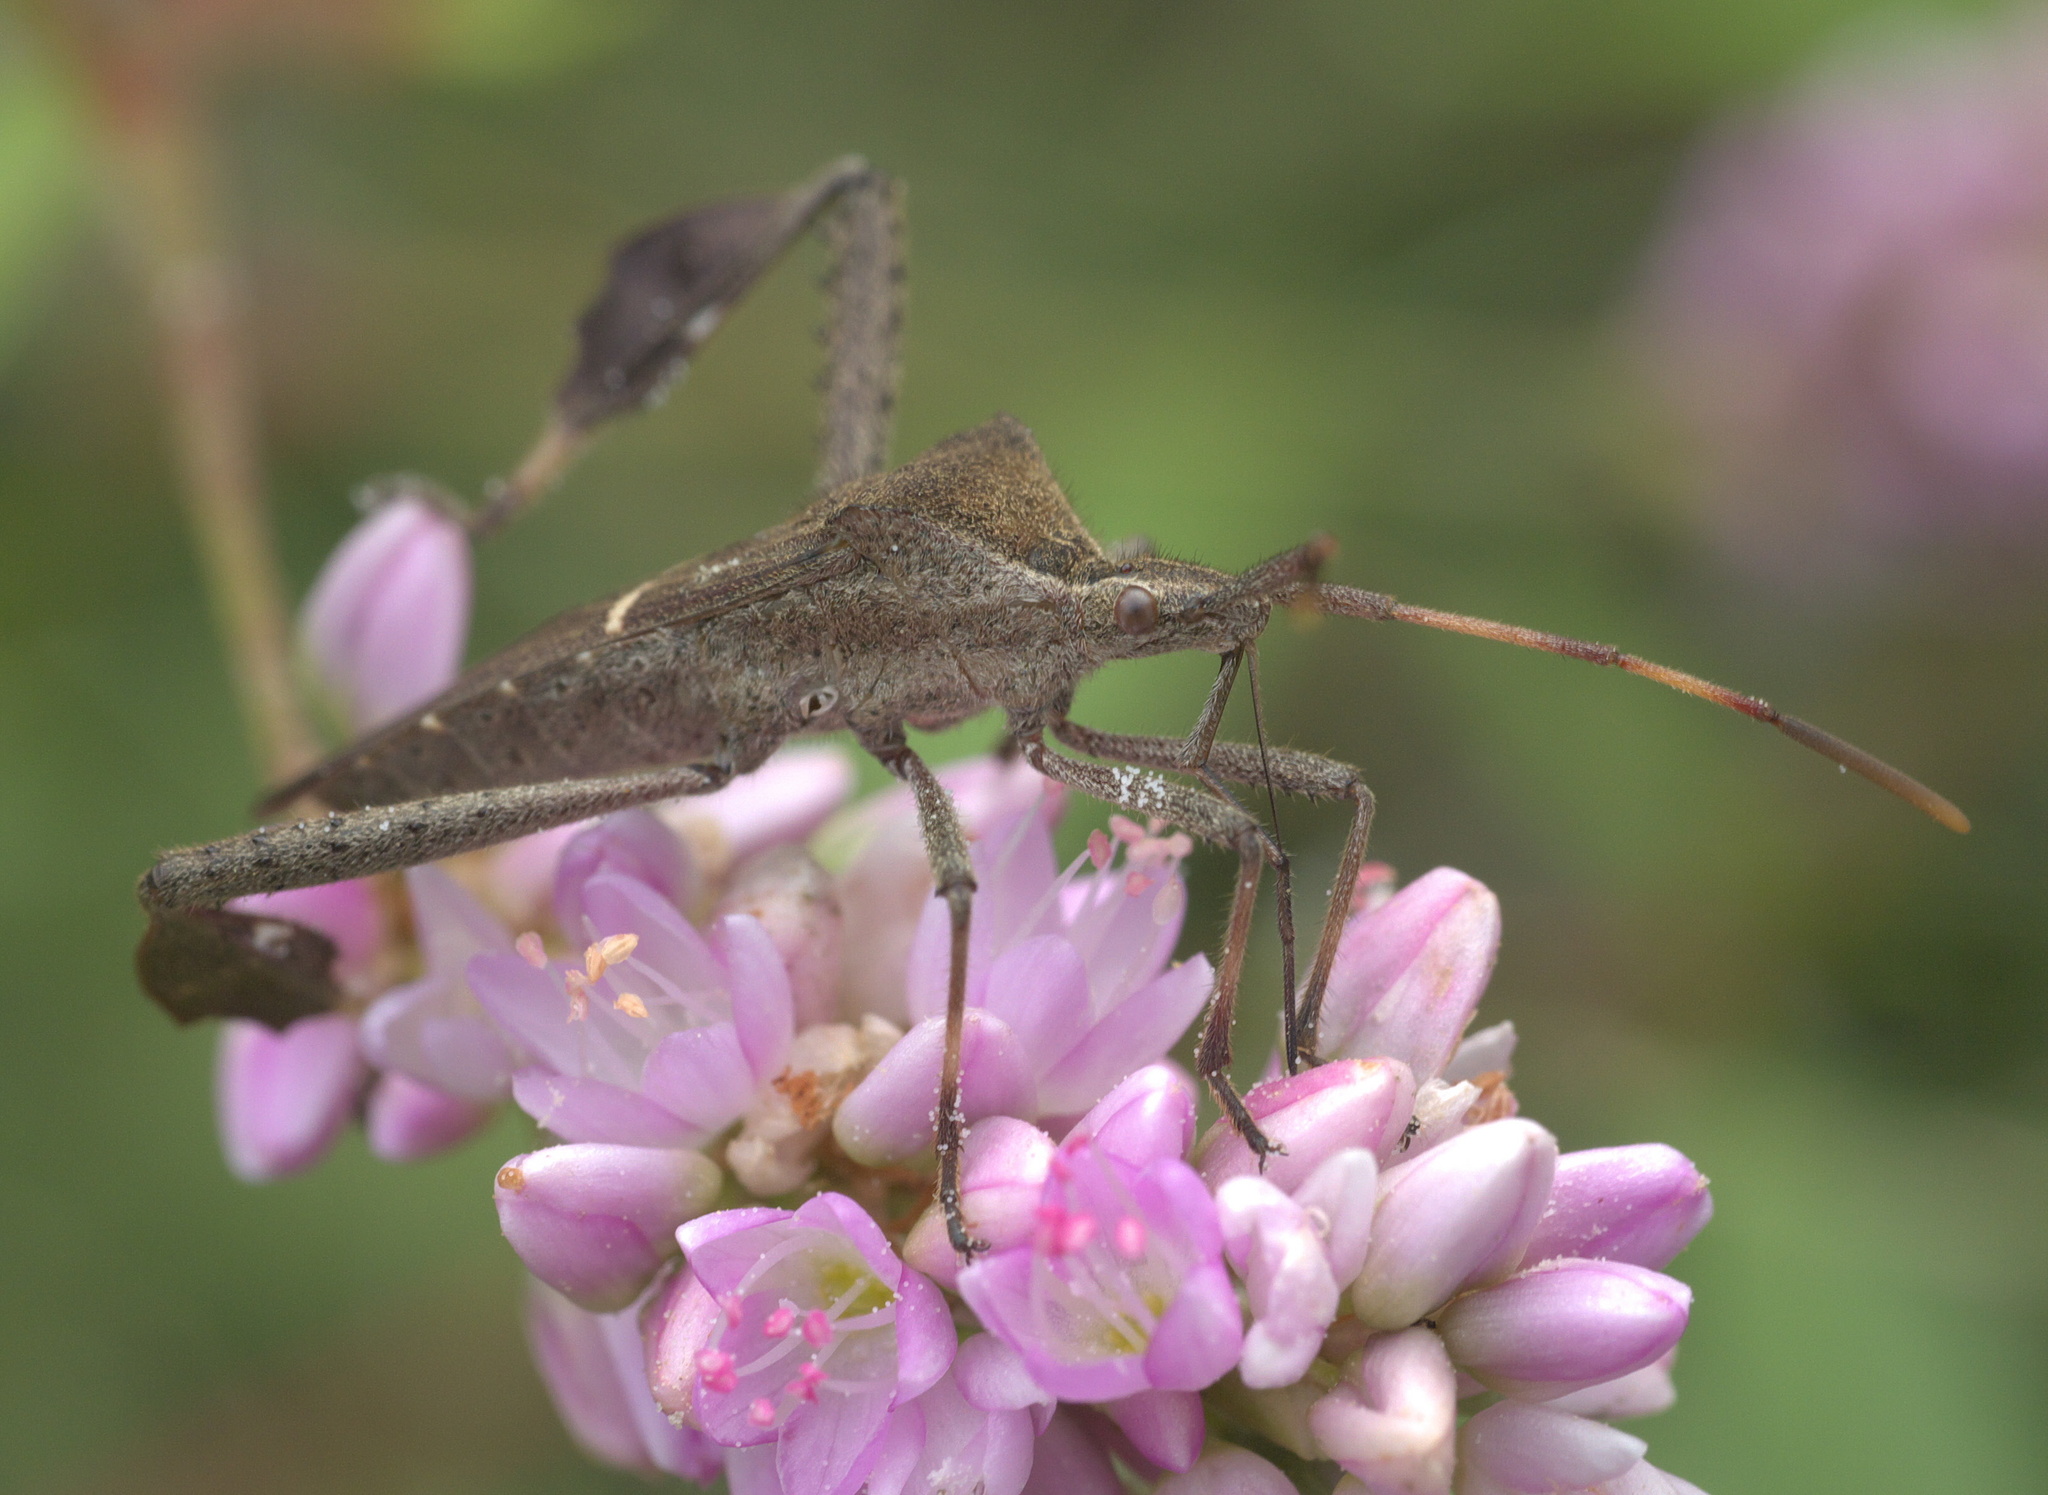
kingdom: Animalia
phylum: Arthropoda
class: Insecta
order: Hemiptera
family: Coreidae
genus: Leptoglossus
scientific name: Leptoglossus phyllopus
